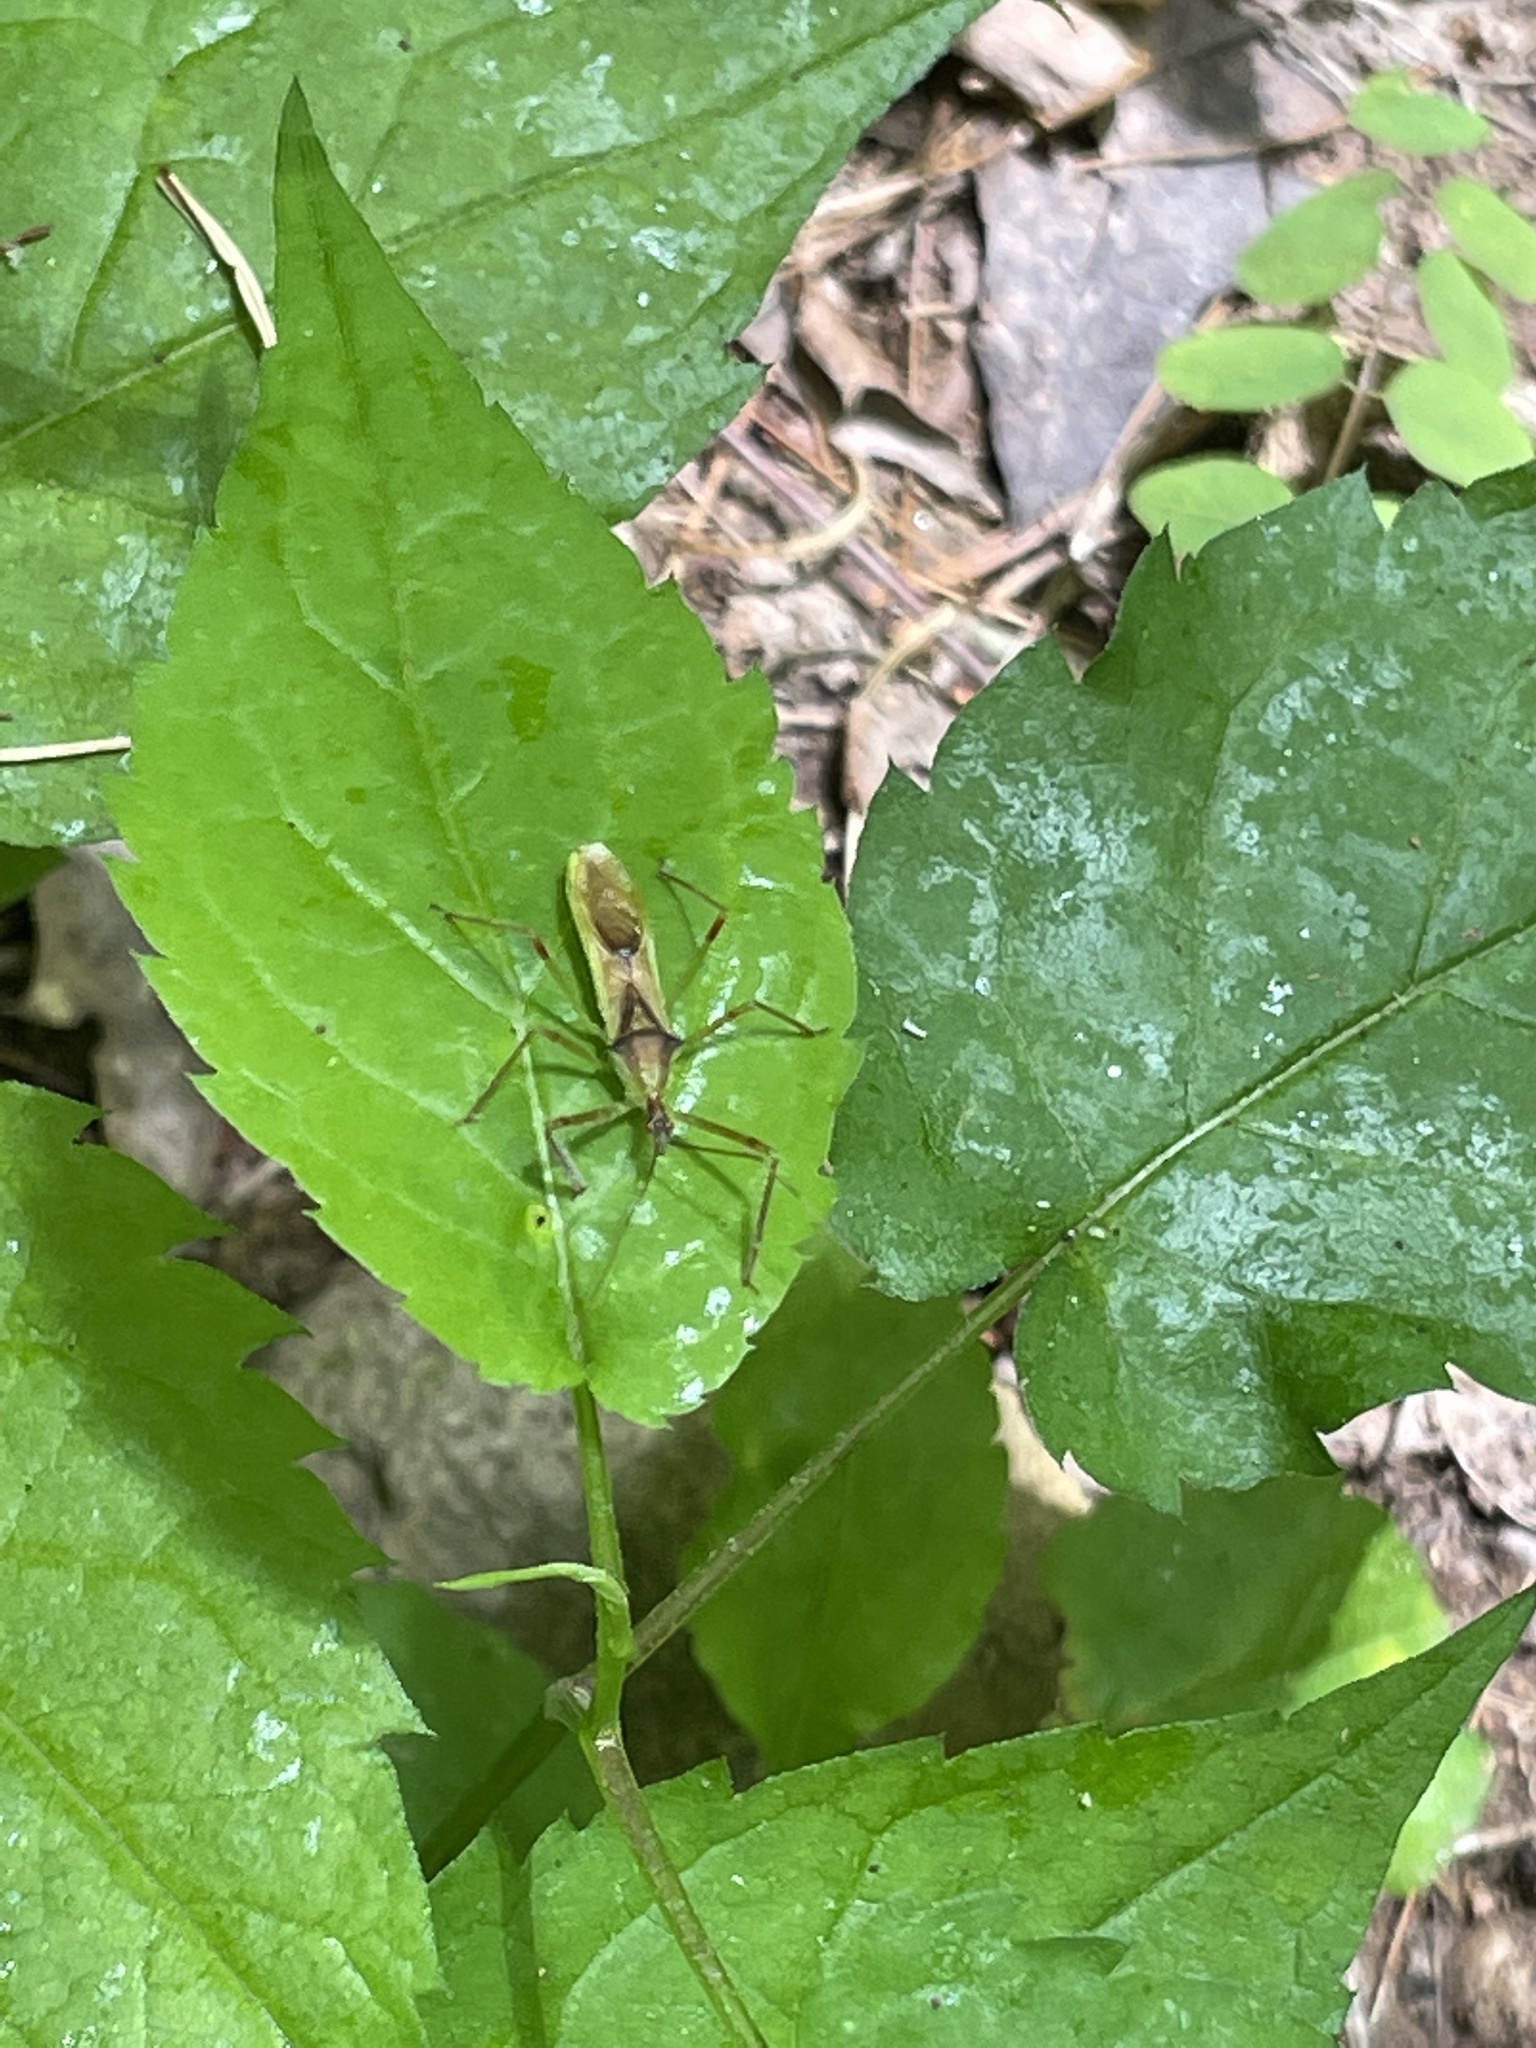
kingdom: Animalia
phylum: Arthropoda
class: Insecta
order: Hemiptera
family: Reduviidae
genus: Zelus
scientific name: Zelus luridus
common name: Pale green assassin bug
